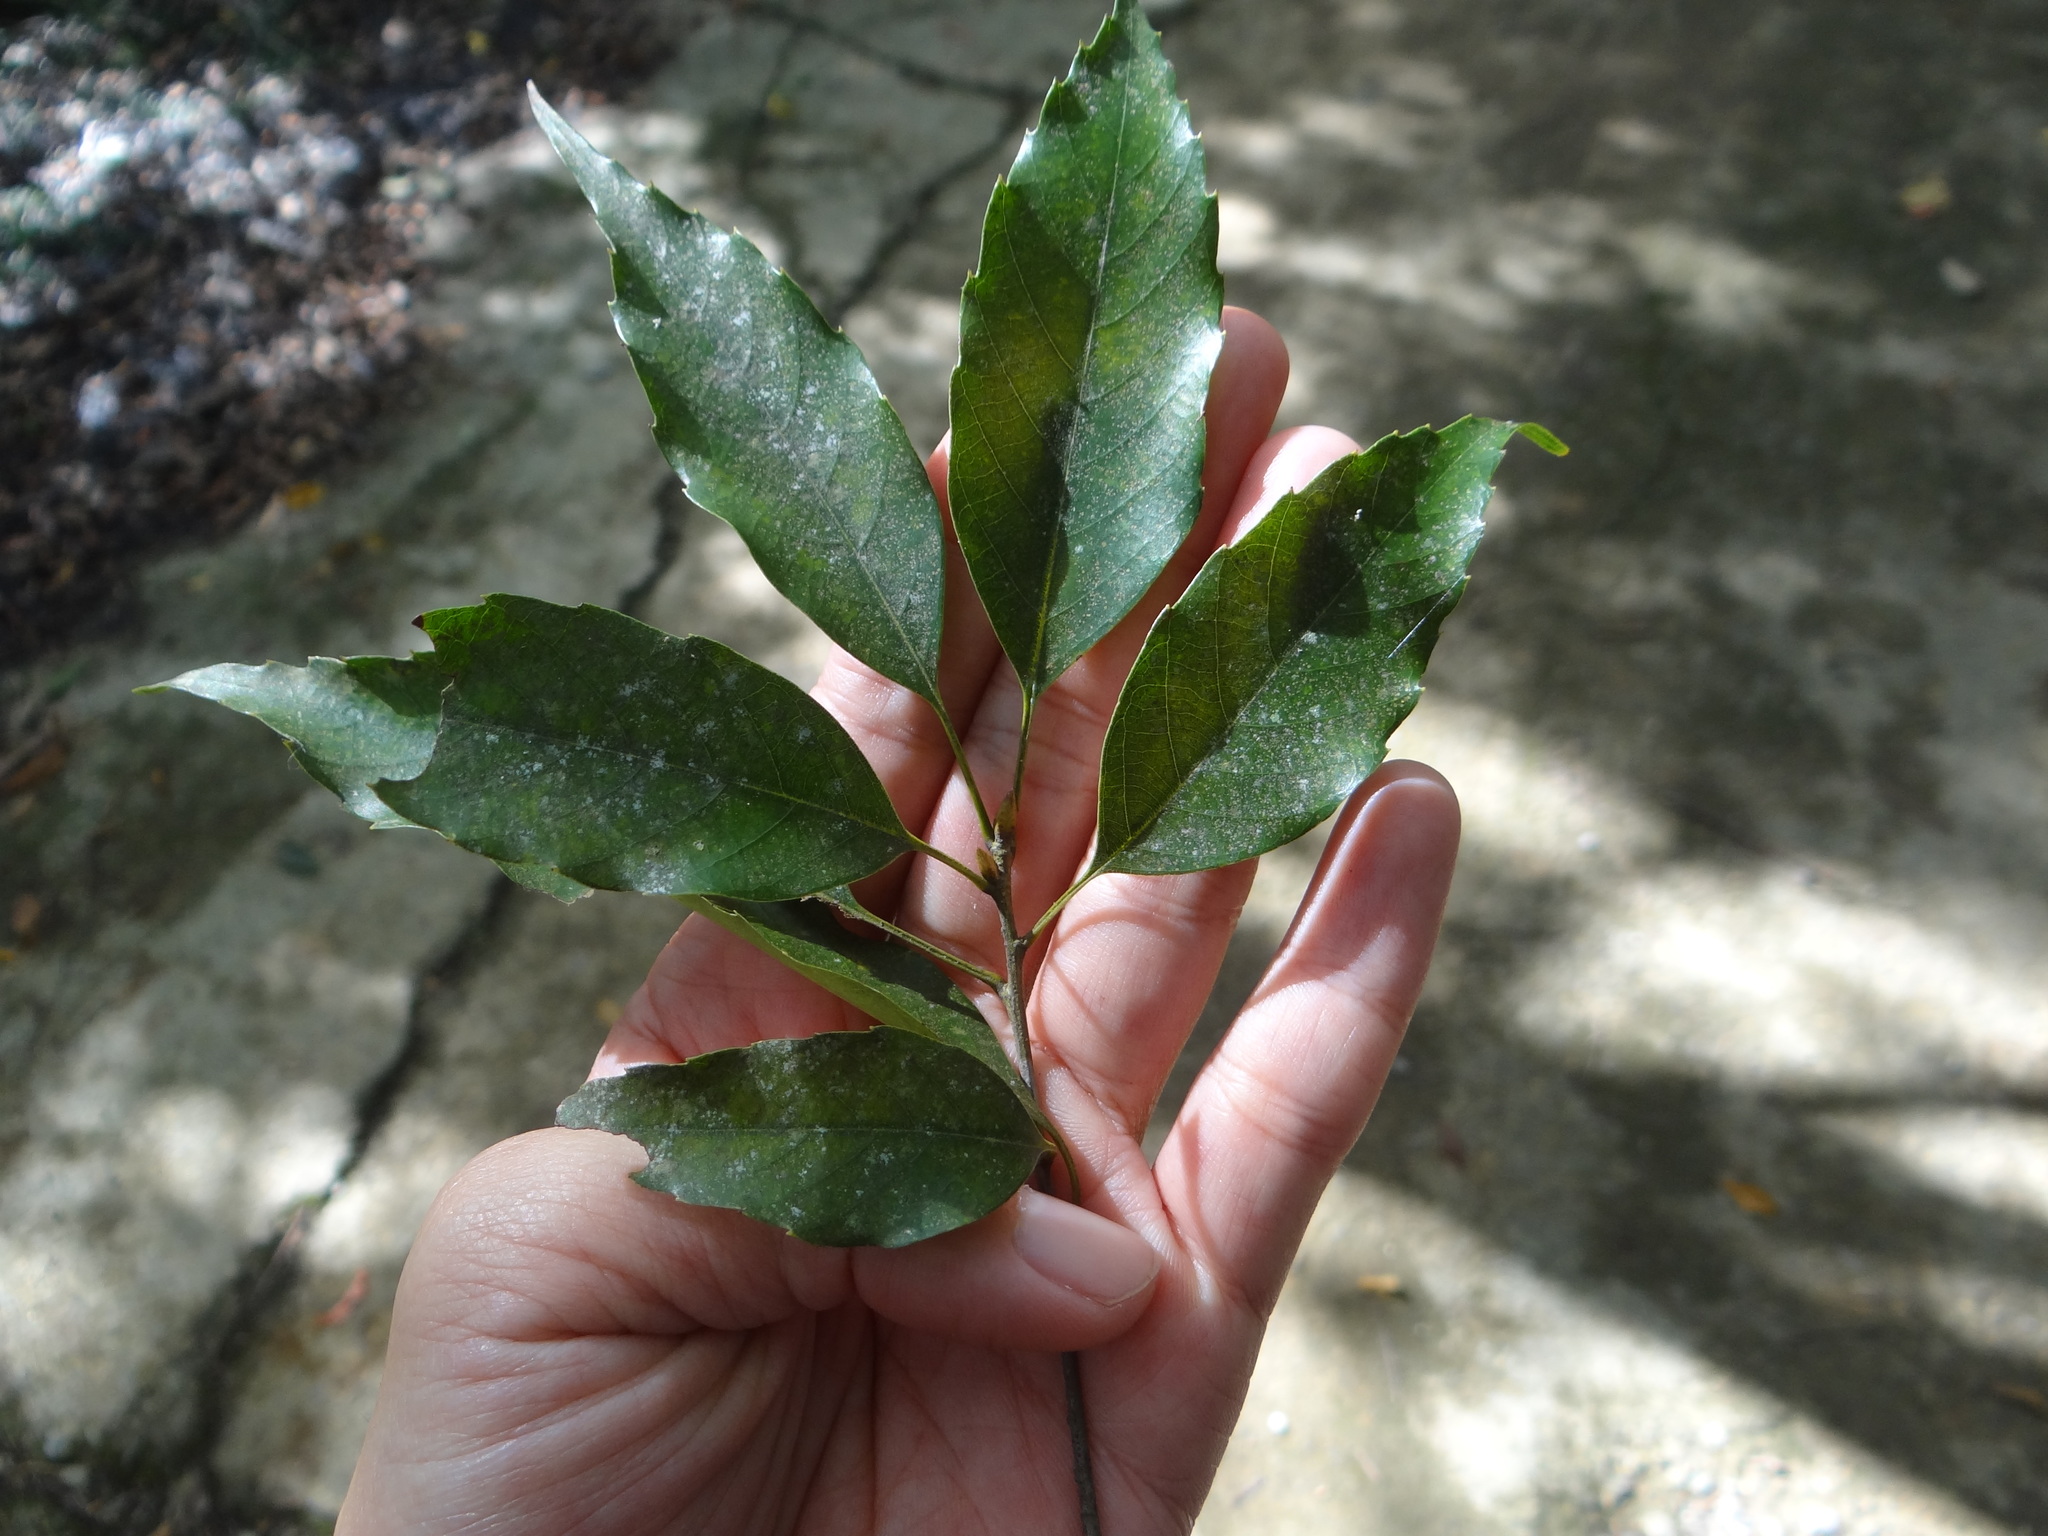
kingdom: Plantae
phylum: Tracheophyta
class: Magnoliopsida
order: Fagales
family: Fagaceae
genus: Quercus
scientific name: Quercus longinux
